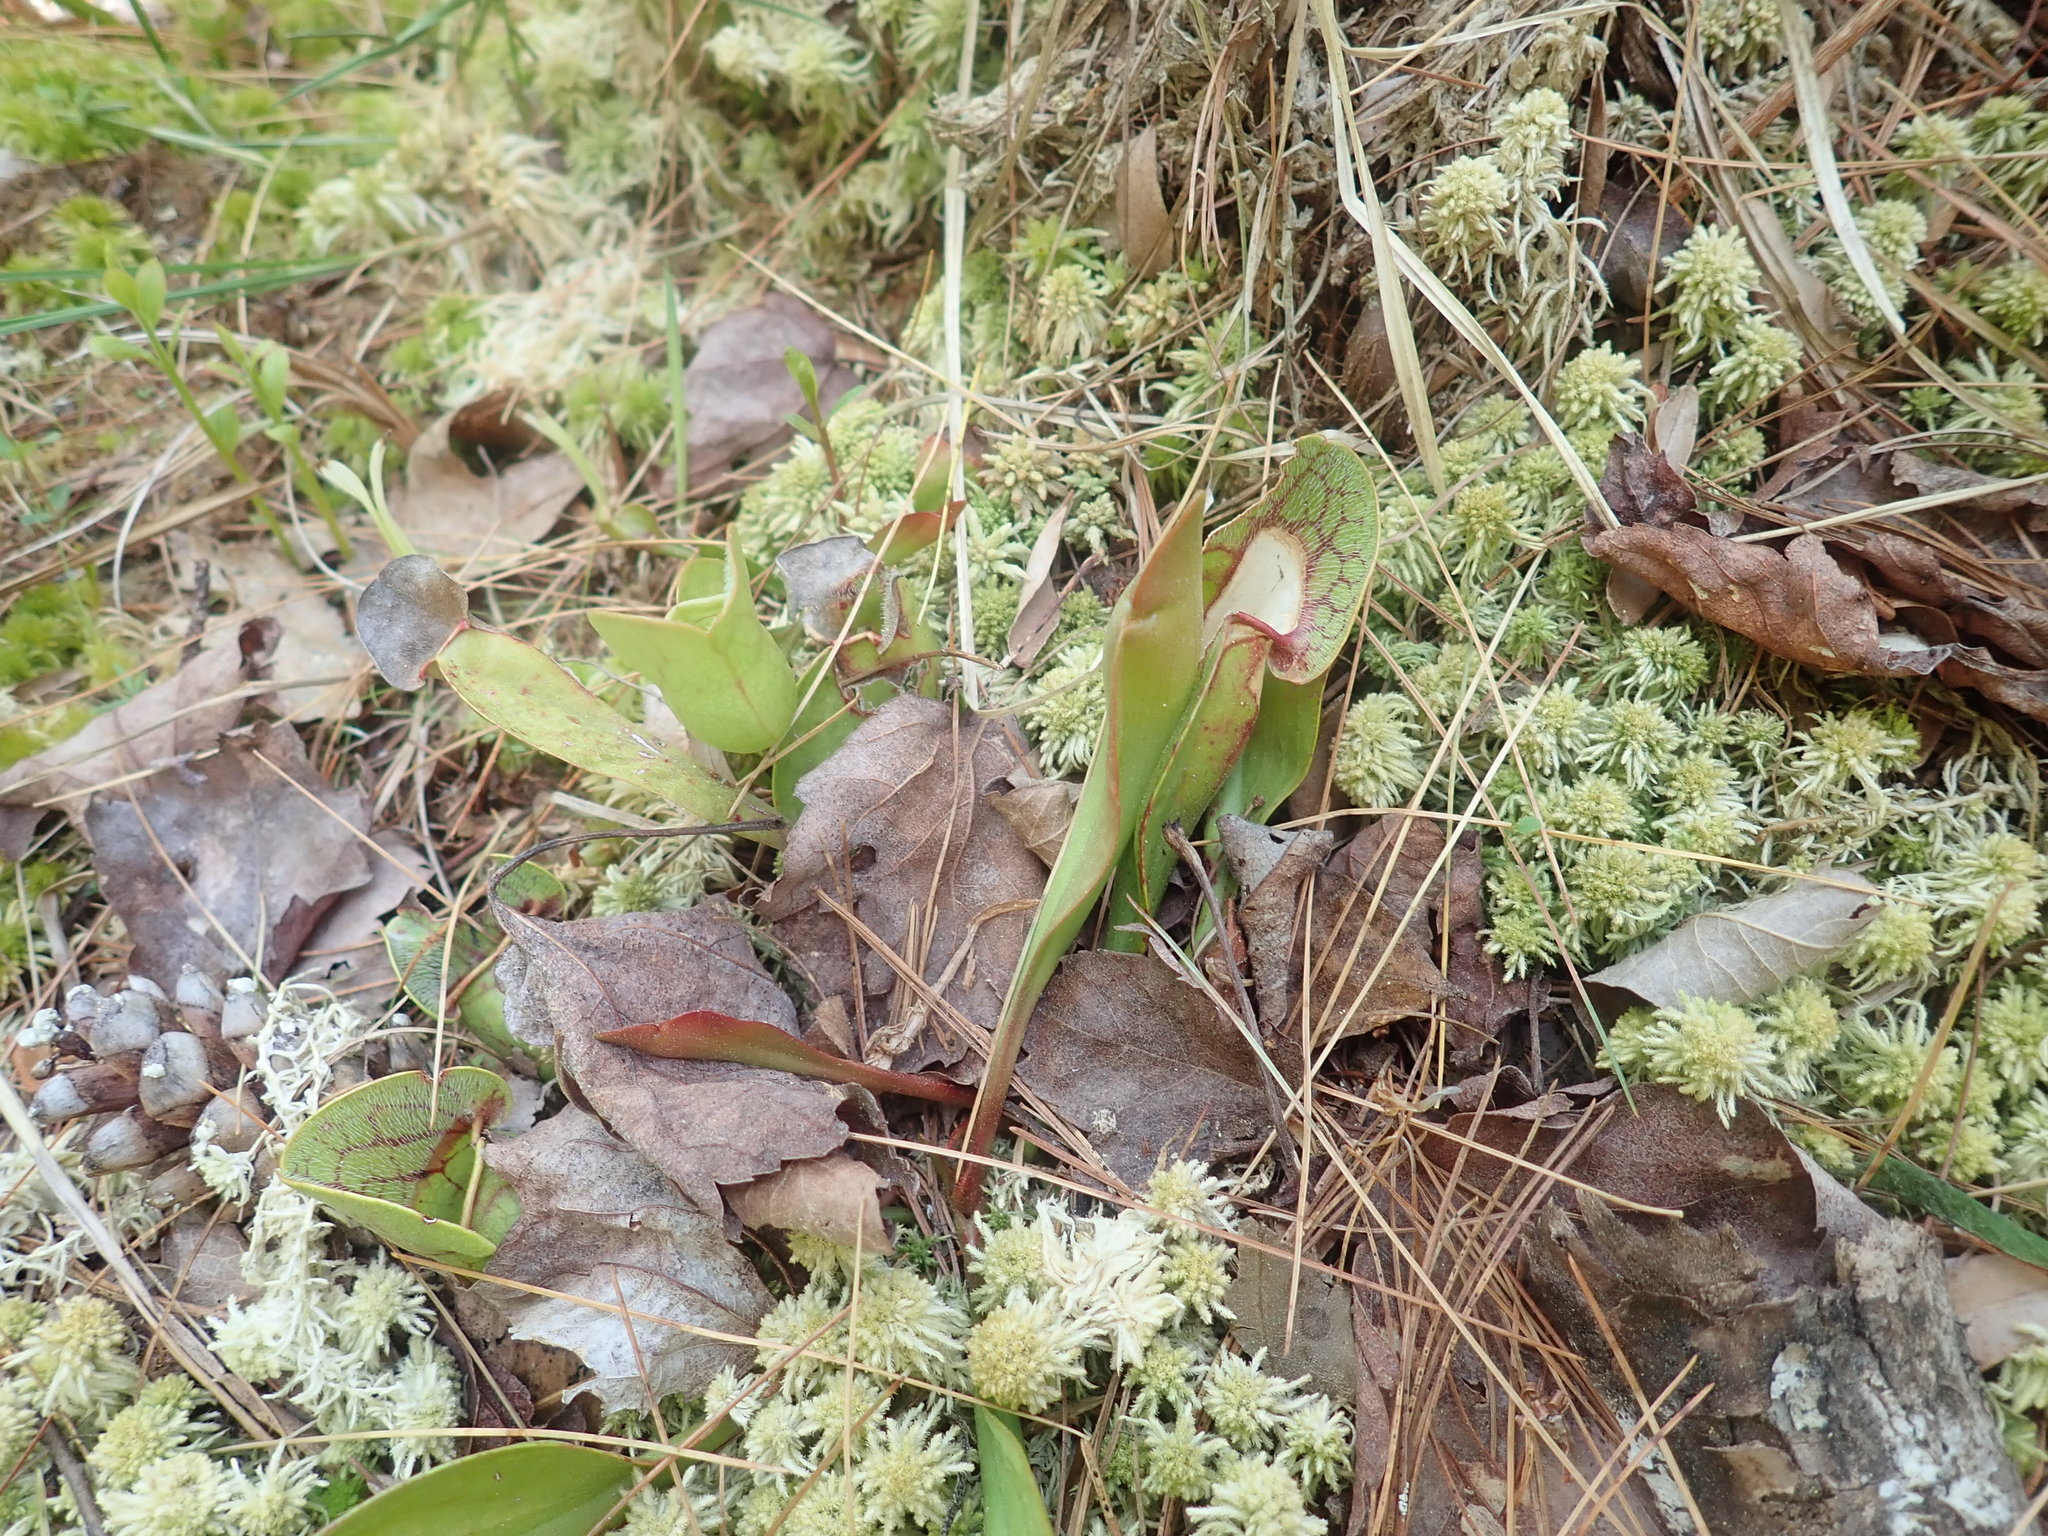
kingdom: Plantae
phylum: Tracheophyta
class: Magnoliopsida
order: Ericales
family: Sarraceniaceae
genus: Sarracenia
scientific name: Sarracenia purpurea
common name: Pitcherplant
